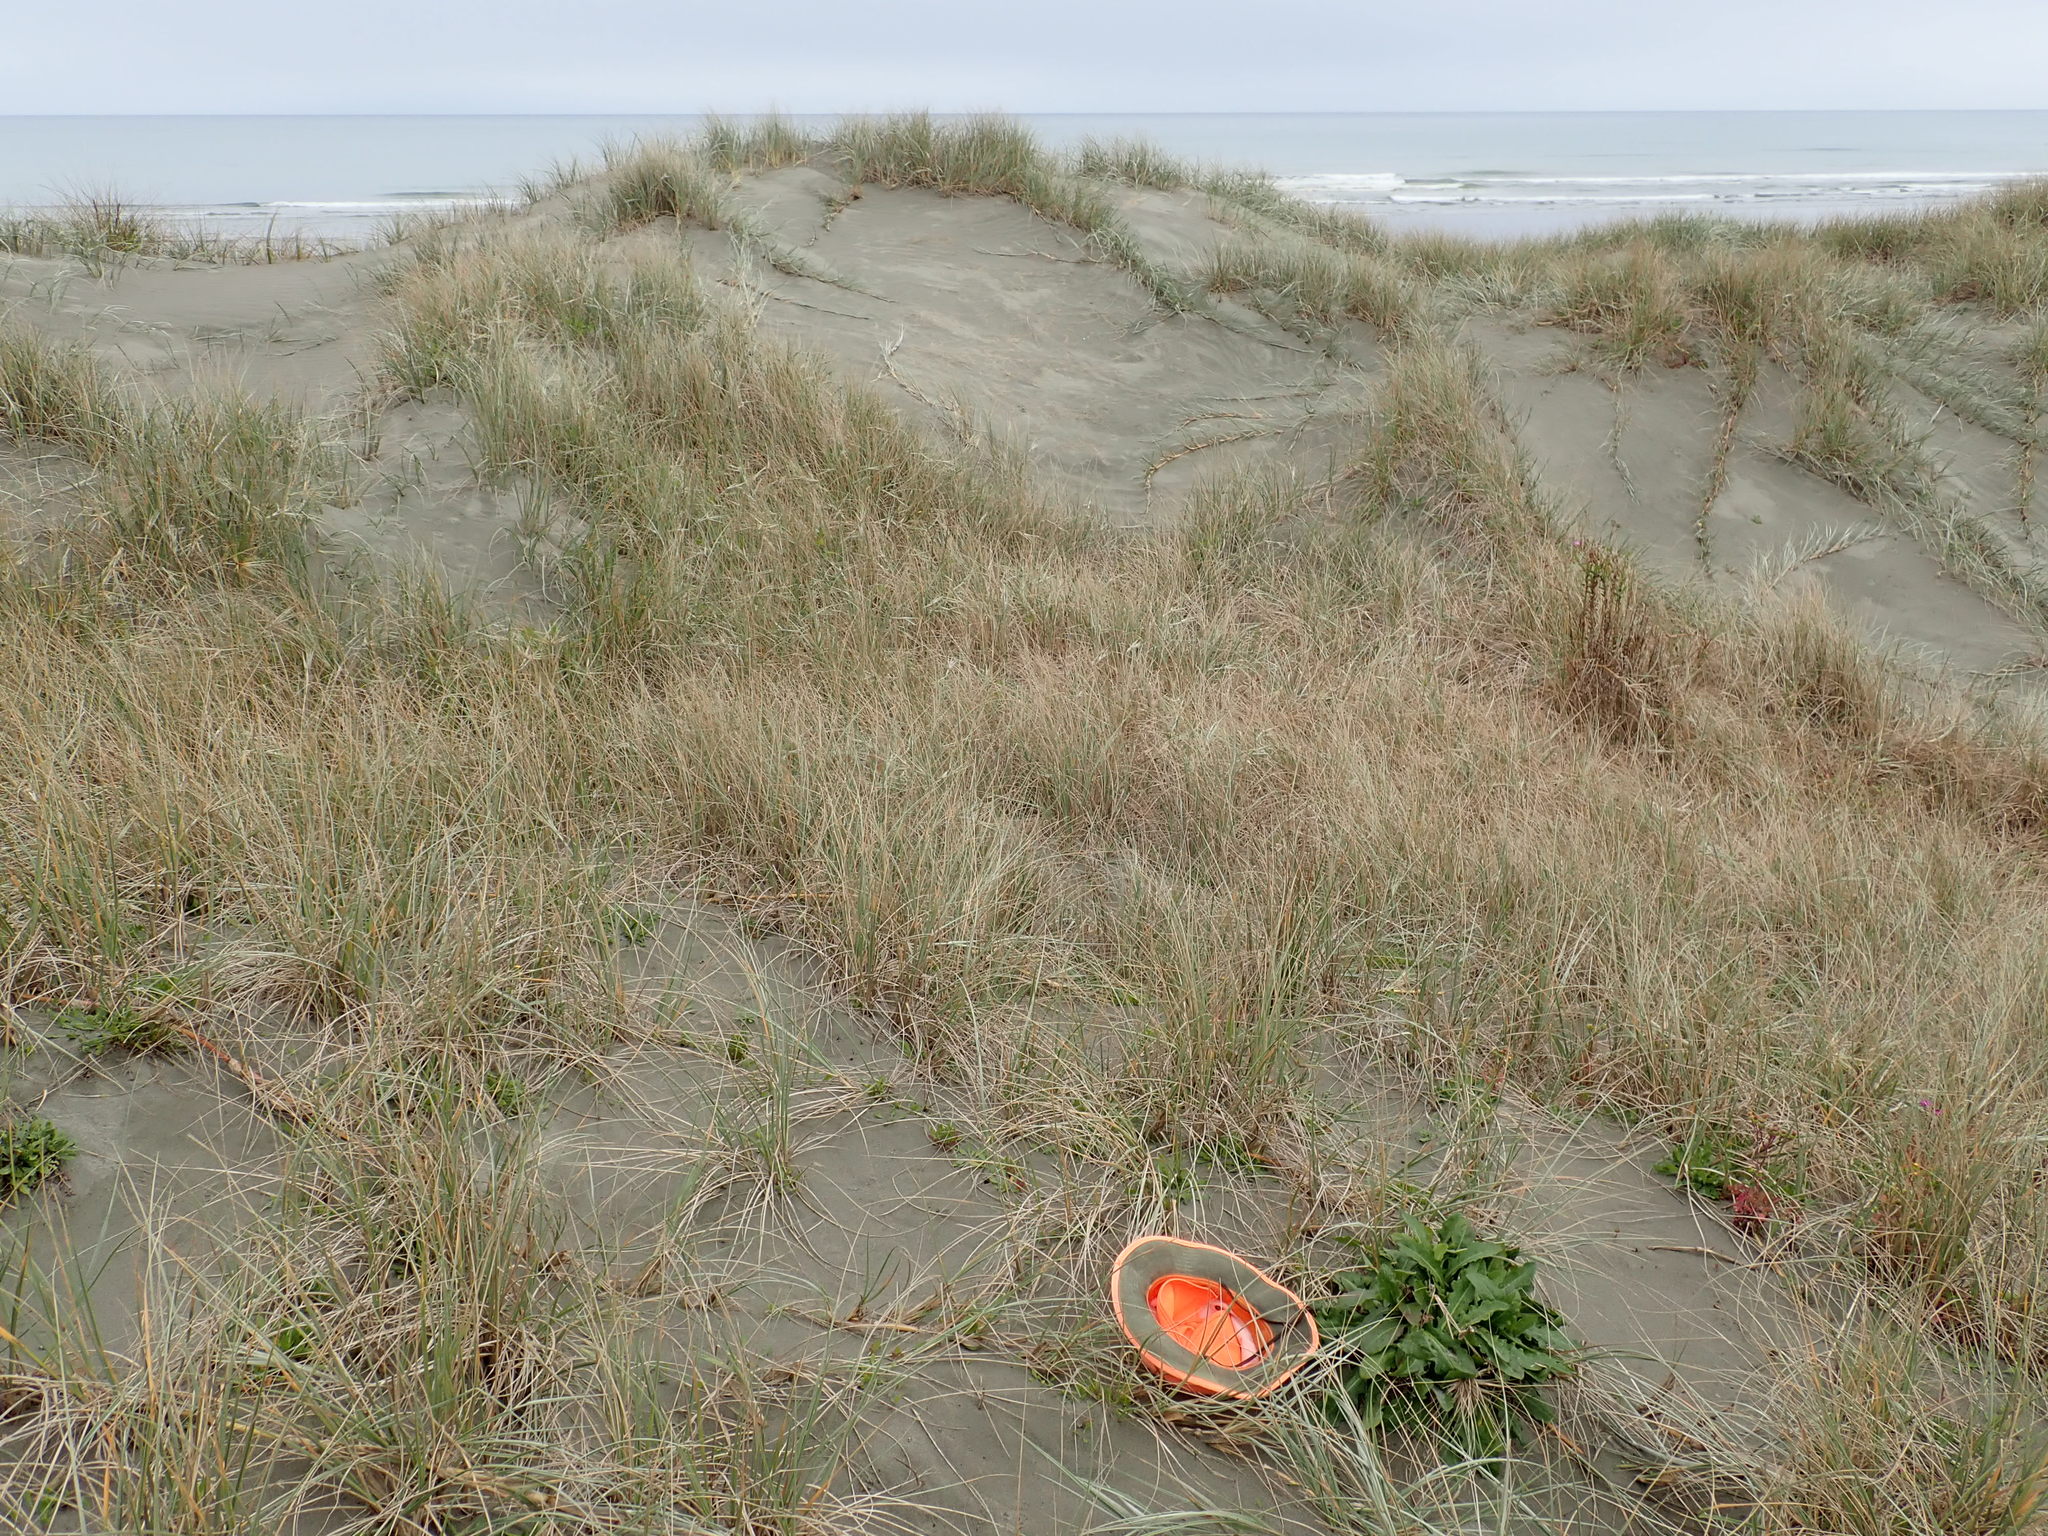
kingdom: Plantae
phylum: Tracheophyta
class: Magnoliopsida
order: Asterales
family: Asteraceae
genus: Hypochaeris
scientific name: Hypochaeris radicata
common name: Flatweed
